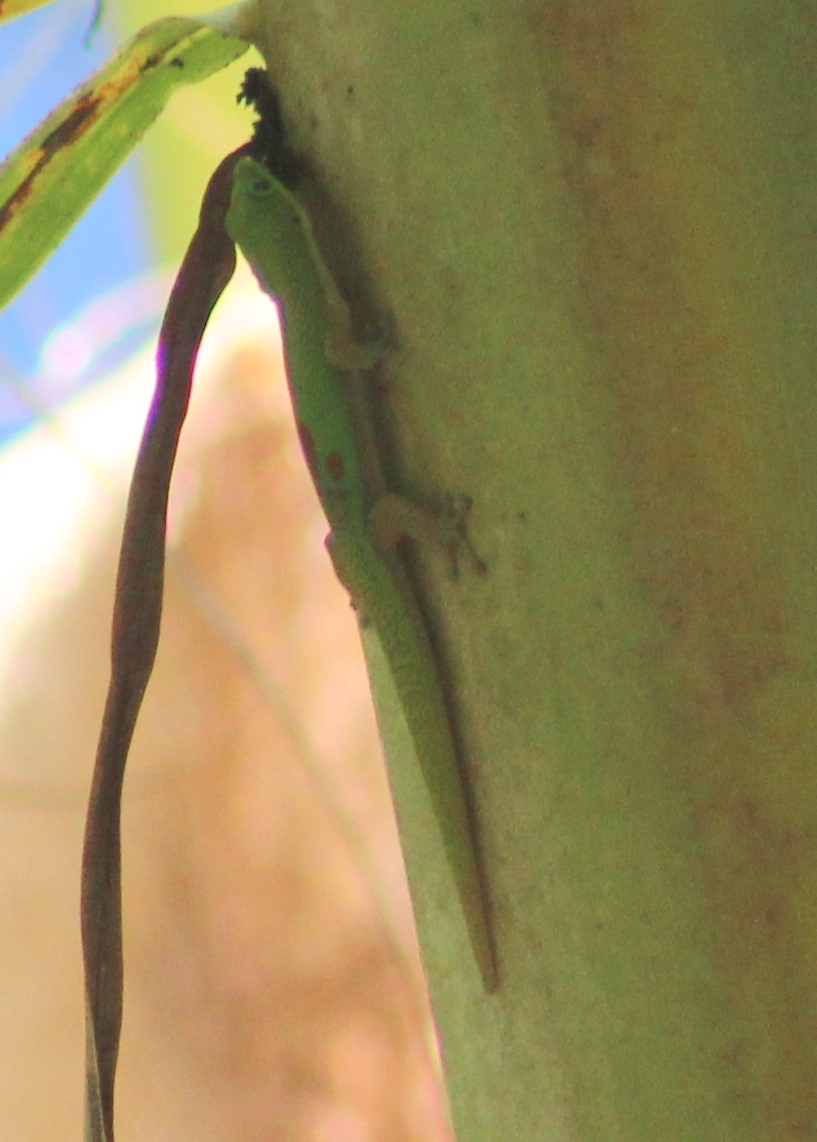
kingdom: Animalia
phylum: Chordata
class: Squamata
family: Gekkonidae
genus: Phelsuma
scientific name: Phelsuma laticauda
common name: Gold dust day gecko
